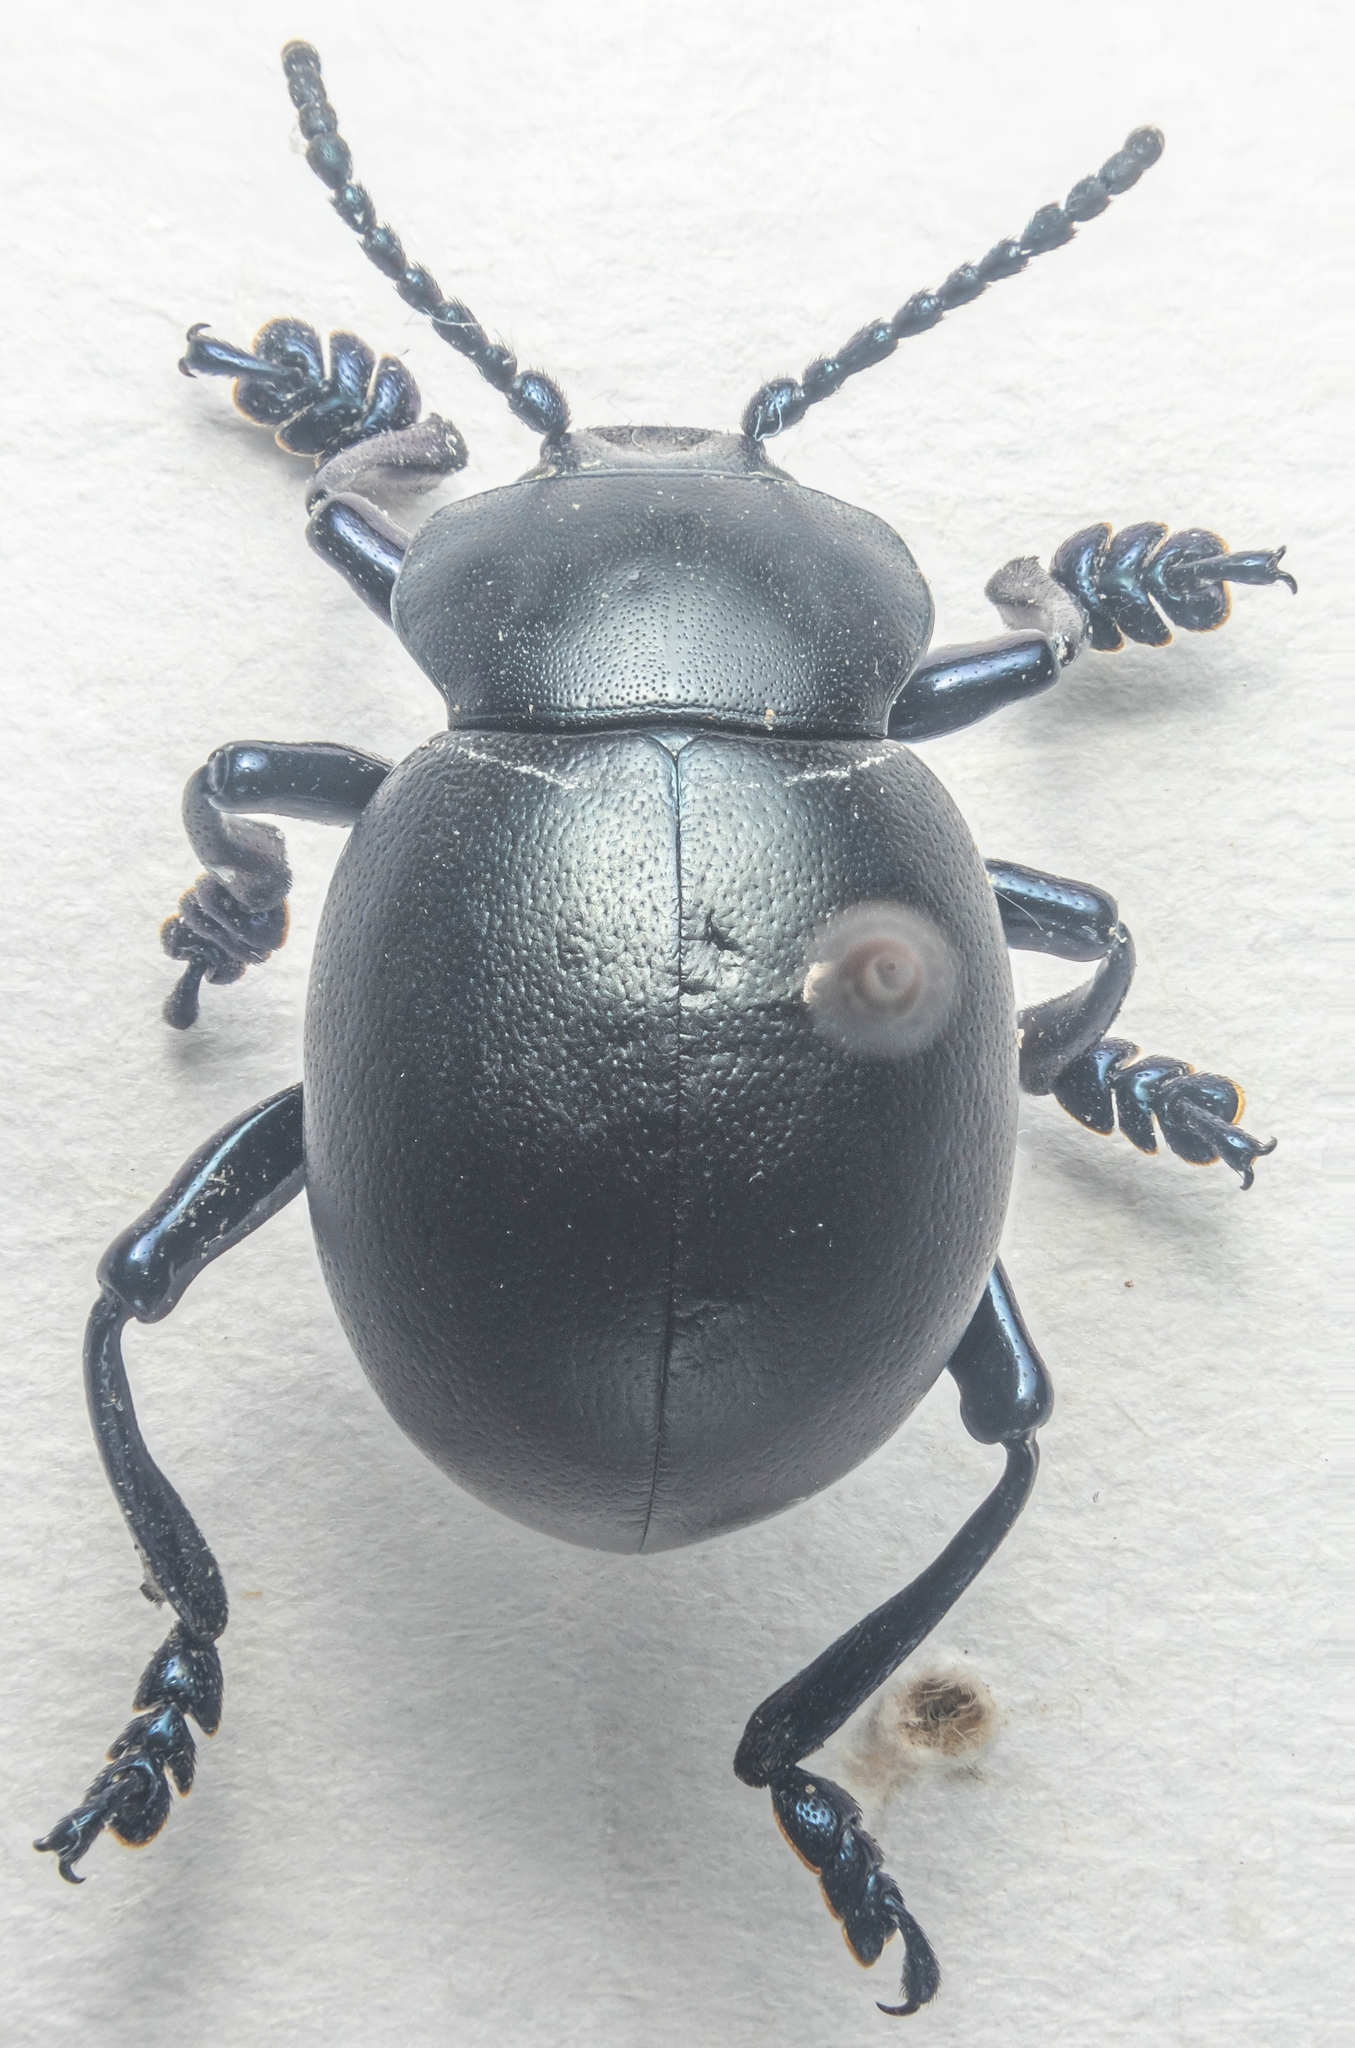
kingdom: Animalia
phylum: Arthropoda
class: Insecta
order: Coleoptera
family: Chrysomelidae
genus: Timarcha
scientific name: Timarcha tenebricosa
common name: Bloody-nosed beetle
